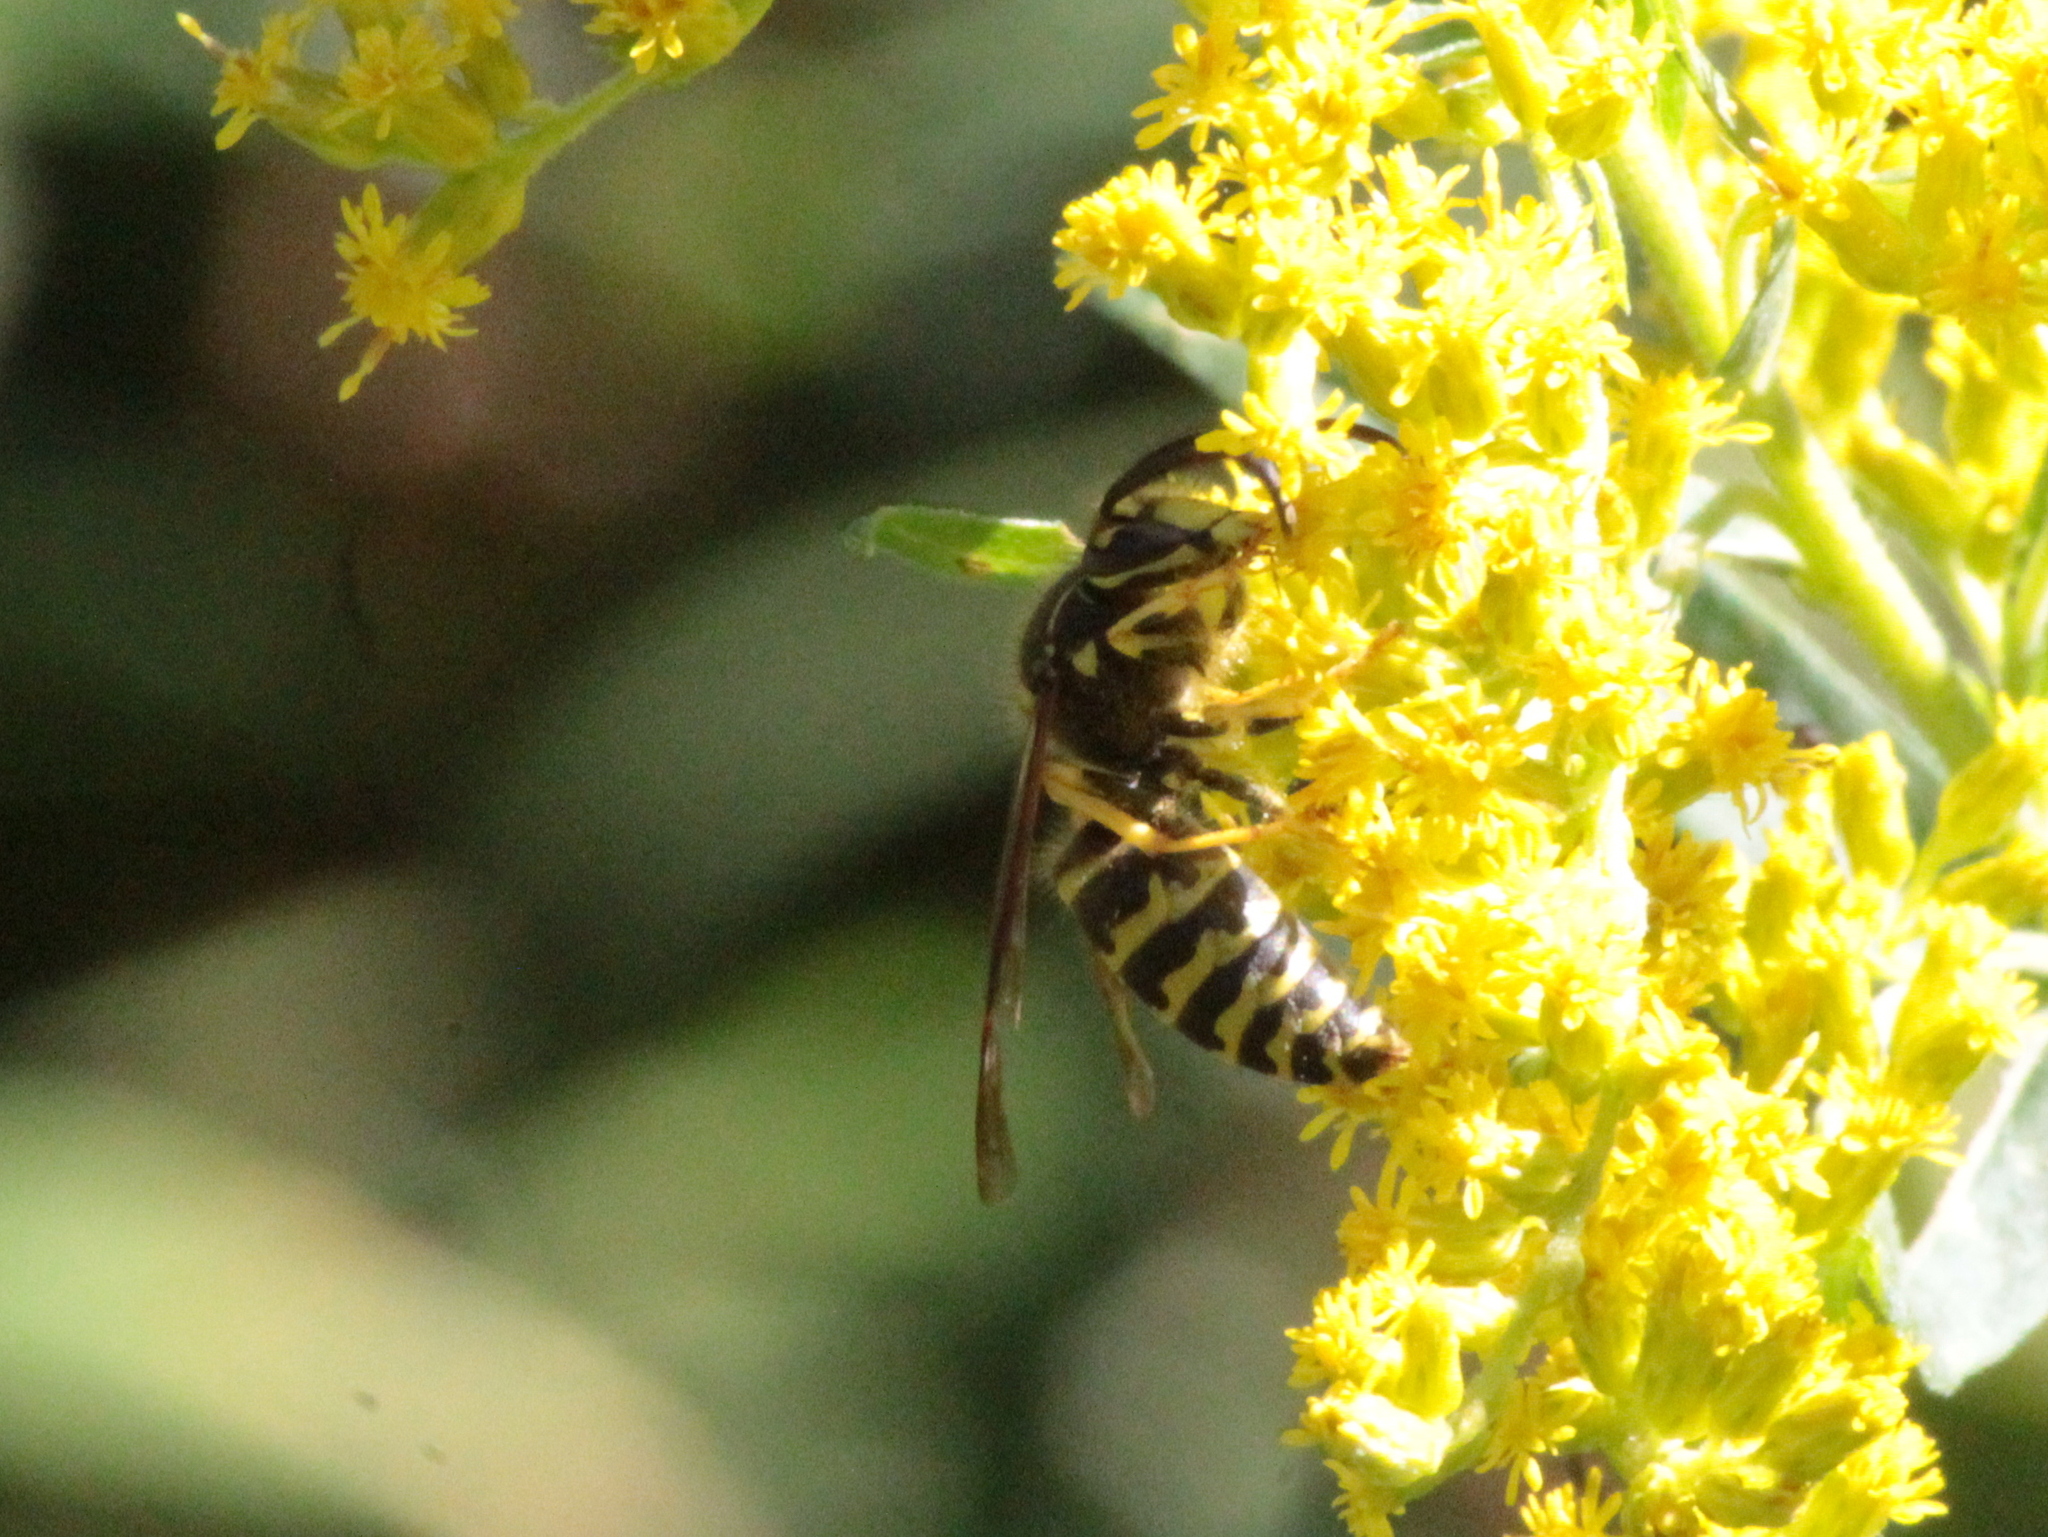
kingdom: Animalia
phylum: Arthropoda
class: Insecta
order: Hymenoptera
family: Vespidae
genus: Dolichovespula
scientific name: Dolichovespula arenaria
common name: Aerial yellowjacket
